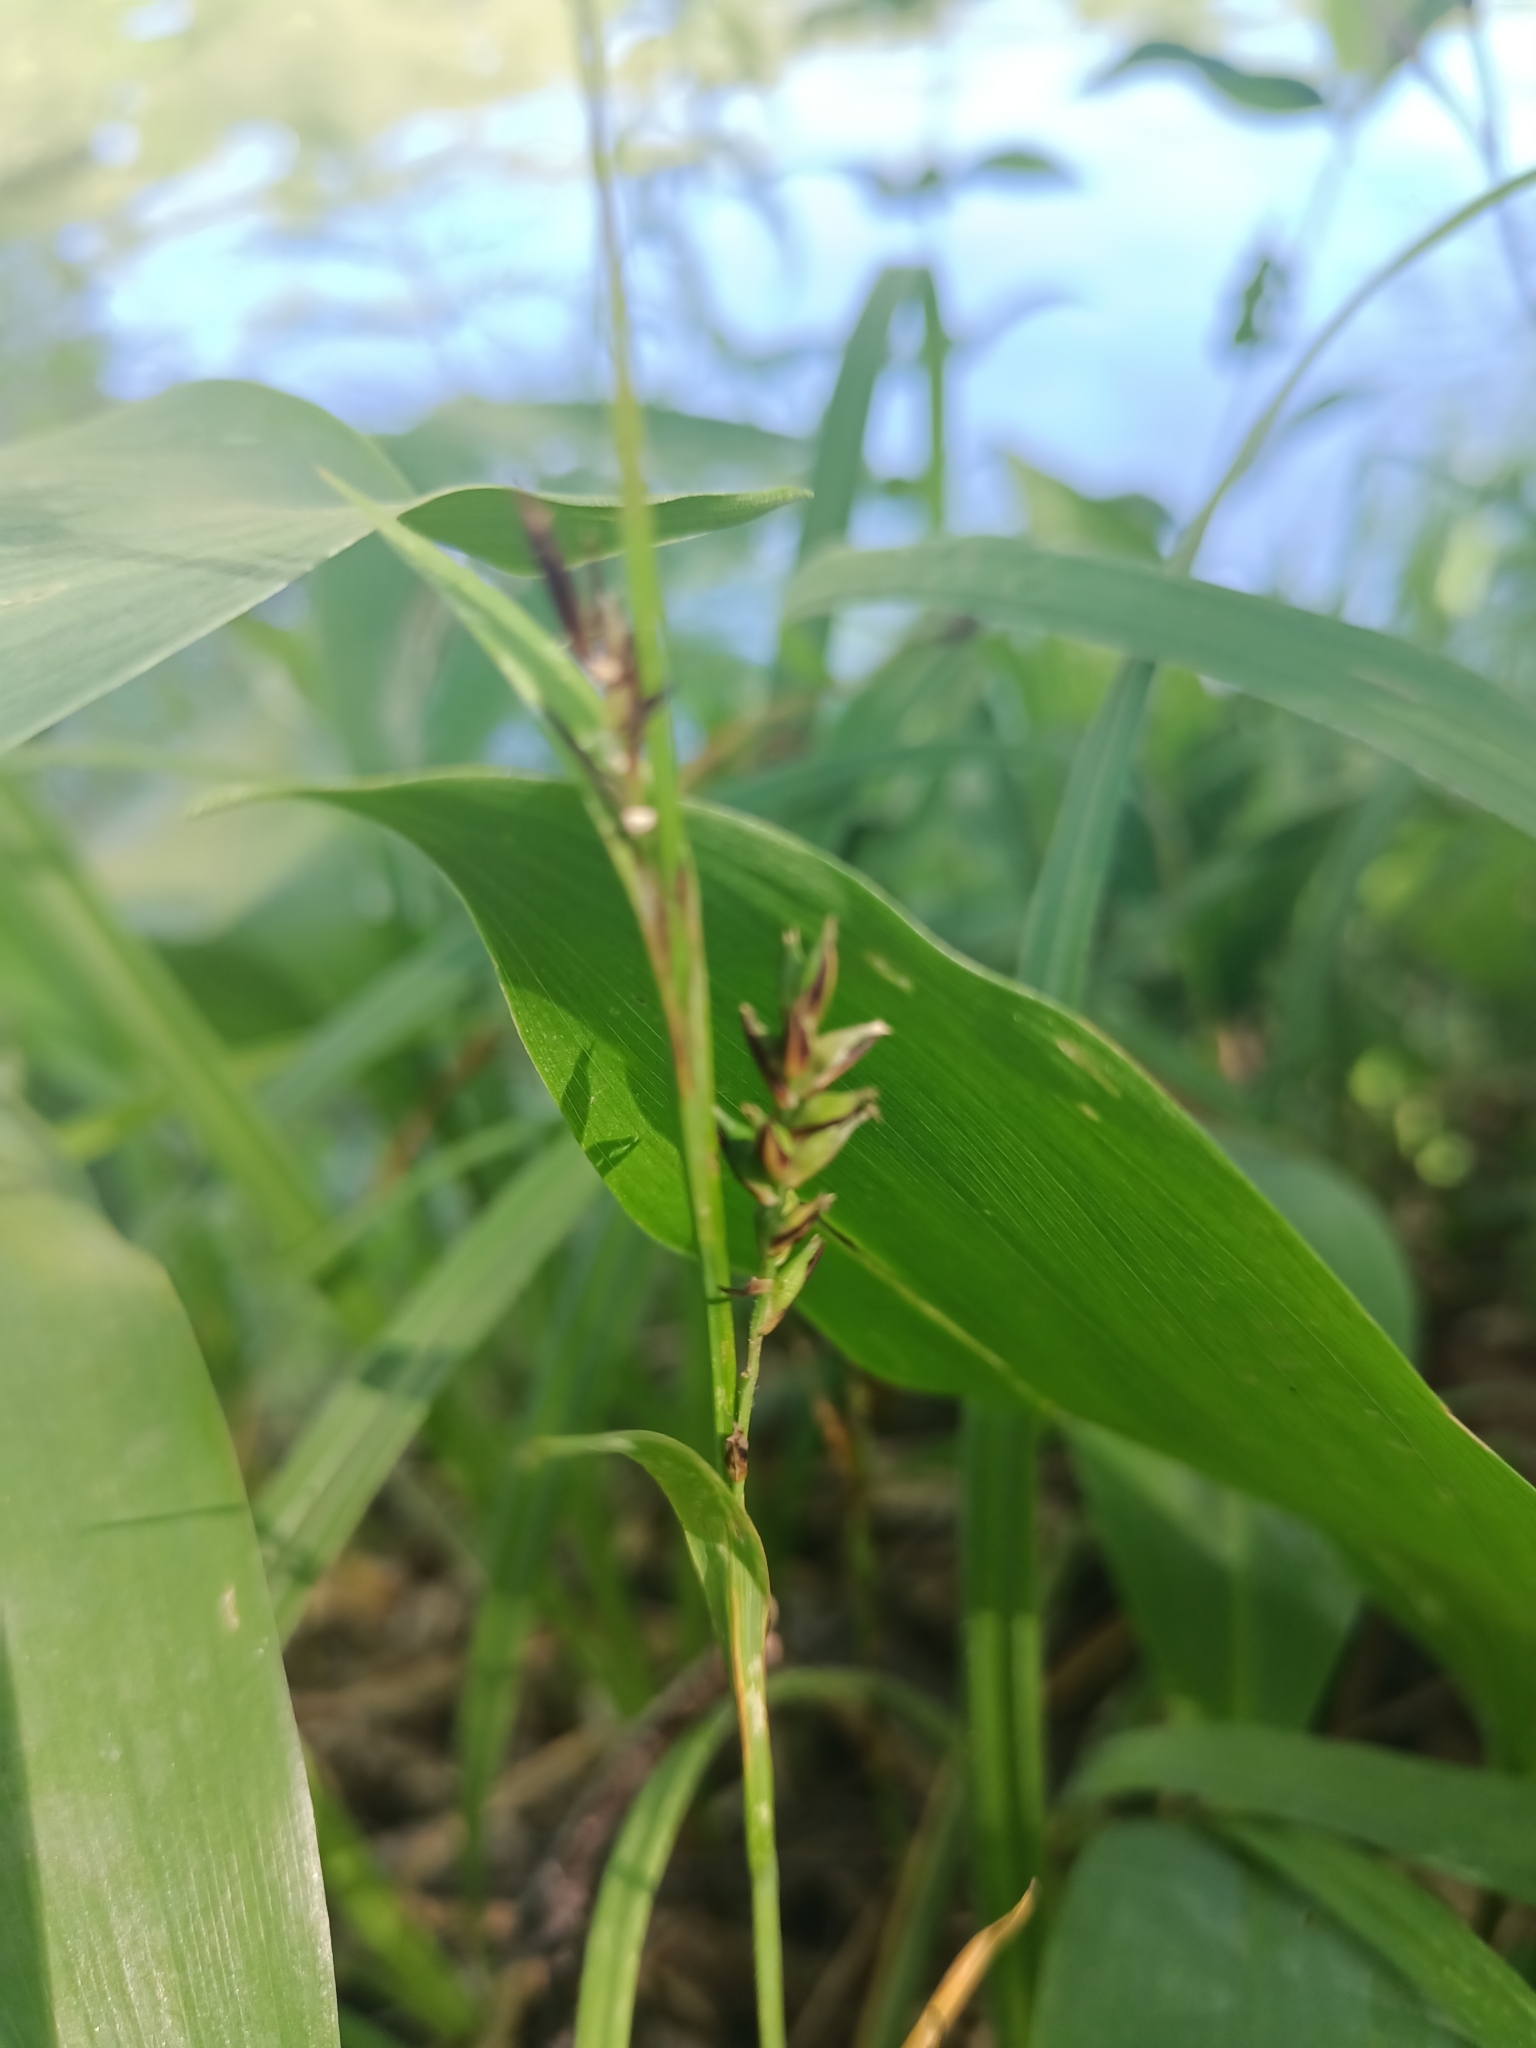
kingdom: Plantae
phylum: Tracheophyta
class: Liliopsida
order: Poales
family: Cyperaceae
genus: Carex
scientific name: Carex pilosa
